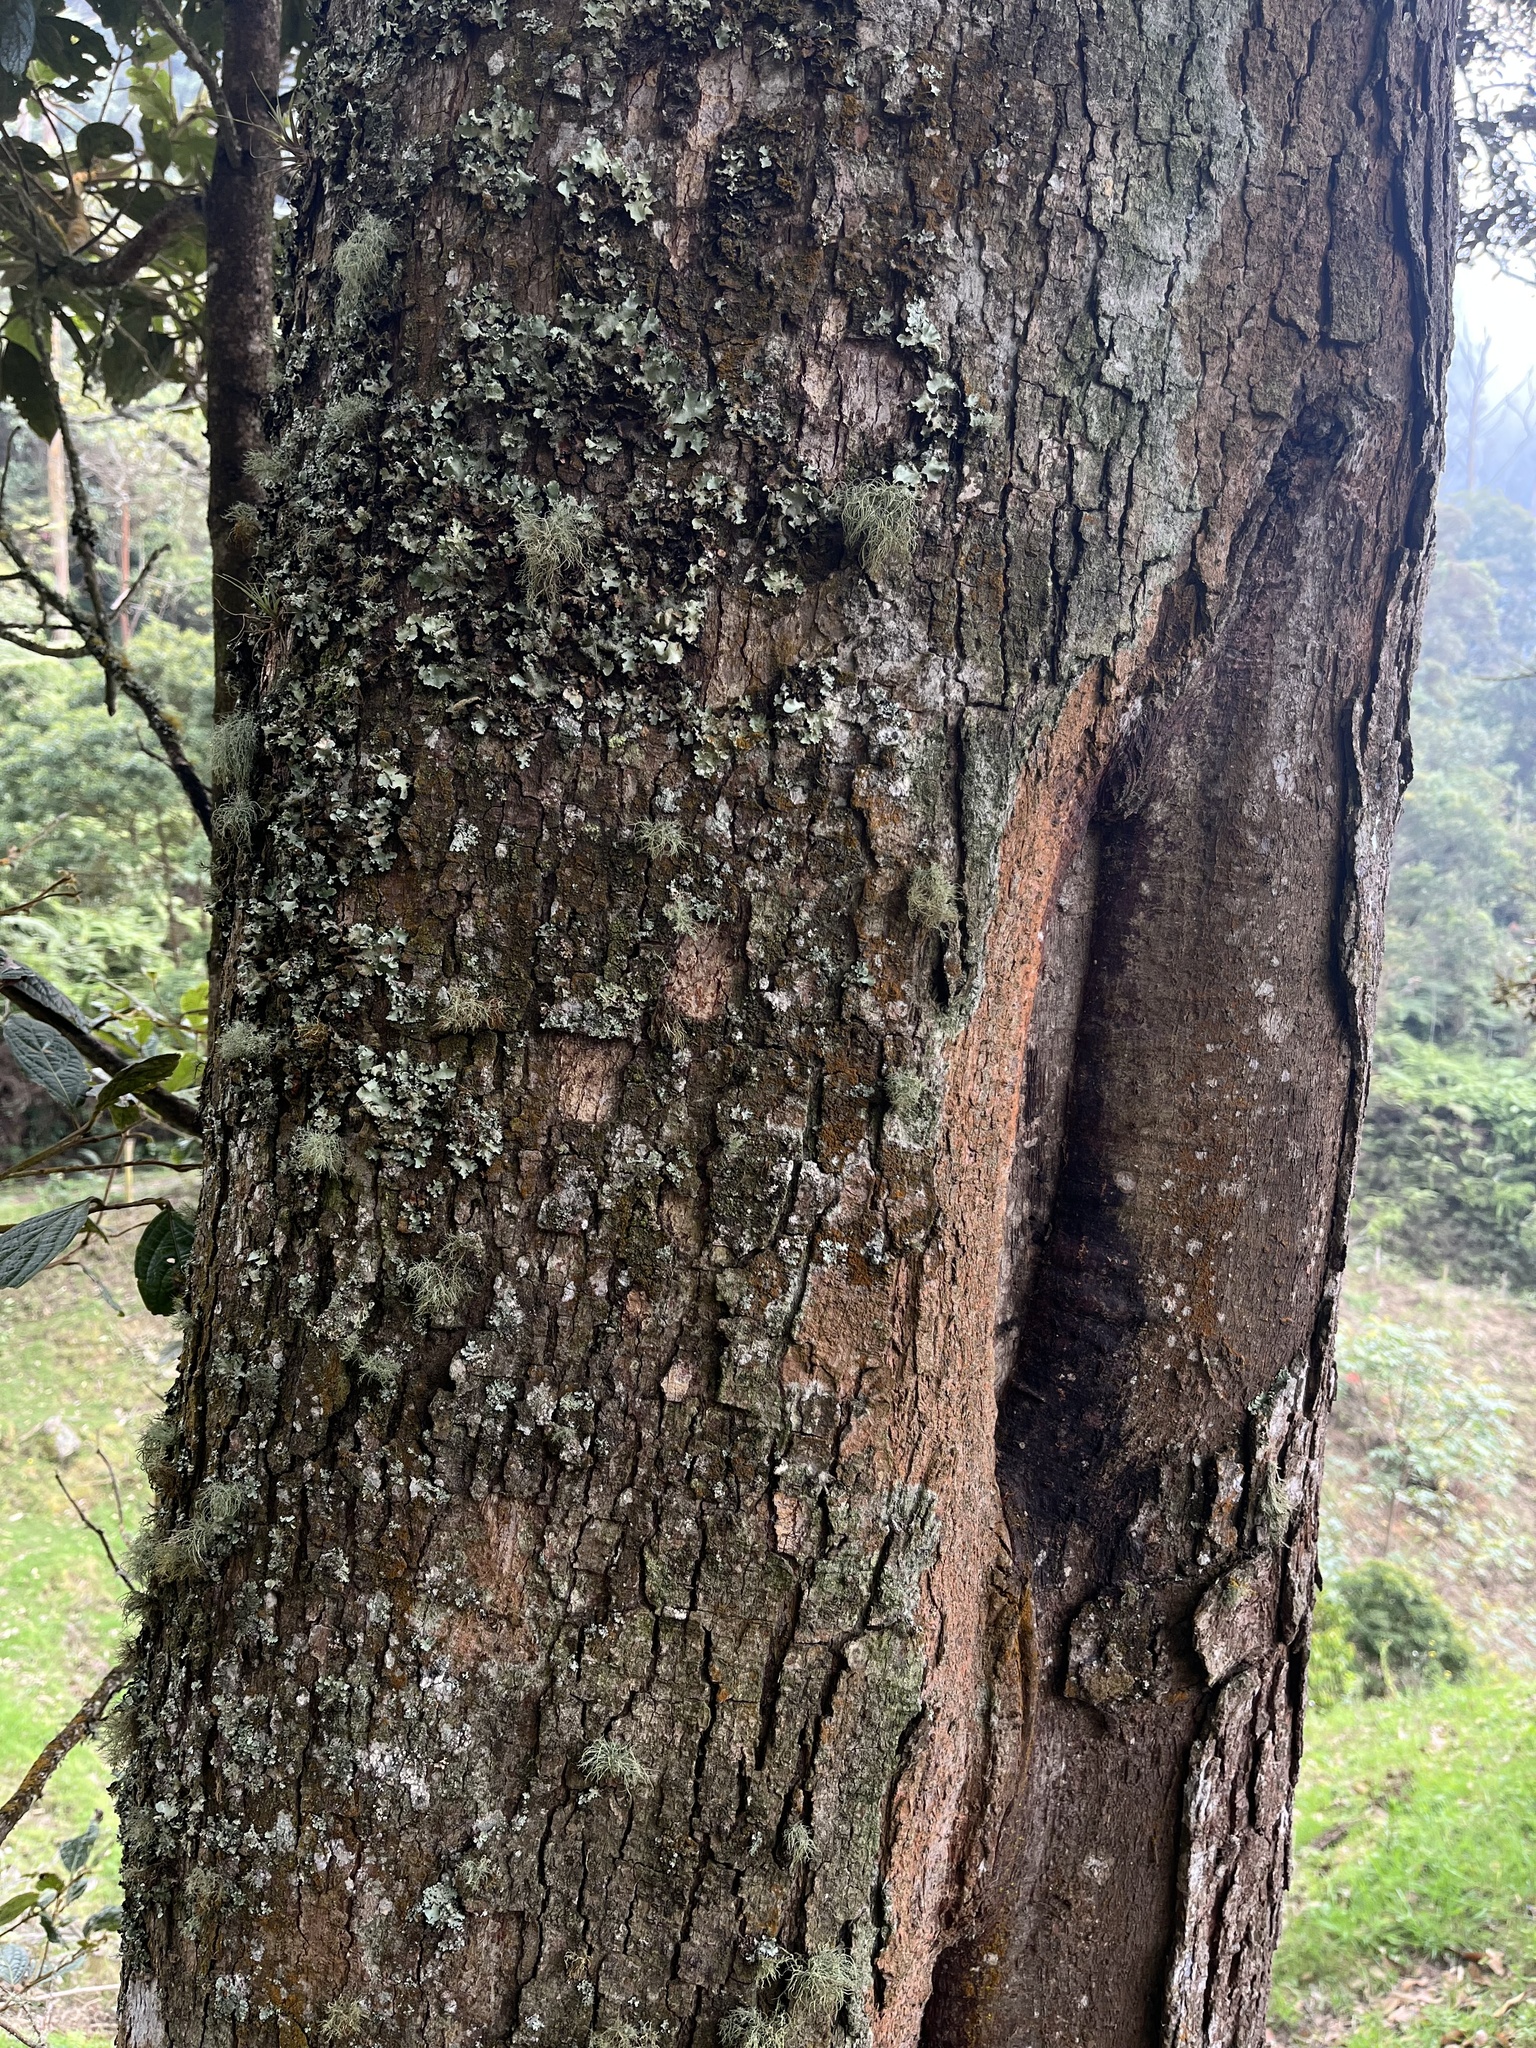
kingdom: Plantae
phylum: Tracheophyta
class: Magnoliopsida
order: Laurales
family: Lauraceae
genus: Ocotea
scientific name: Ocotea pedicellata
